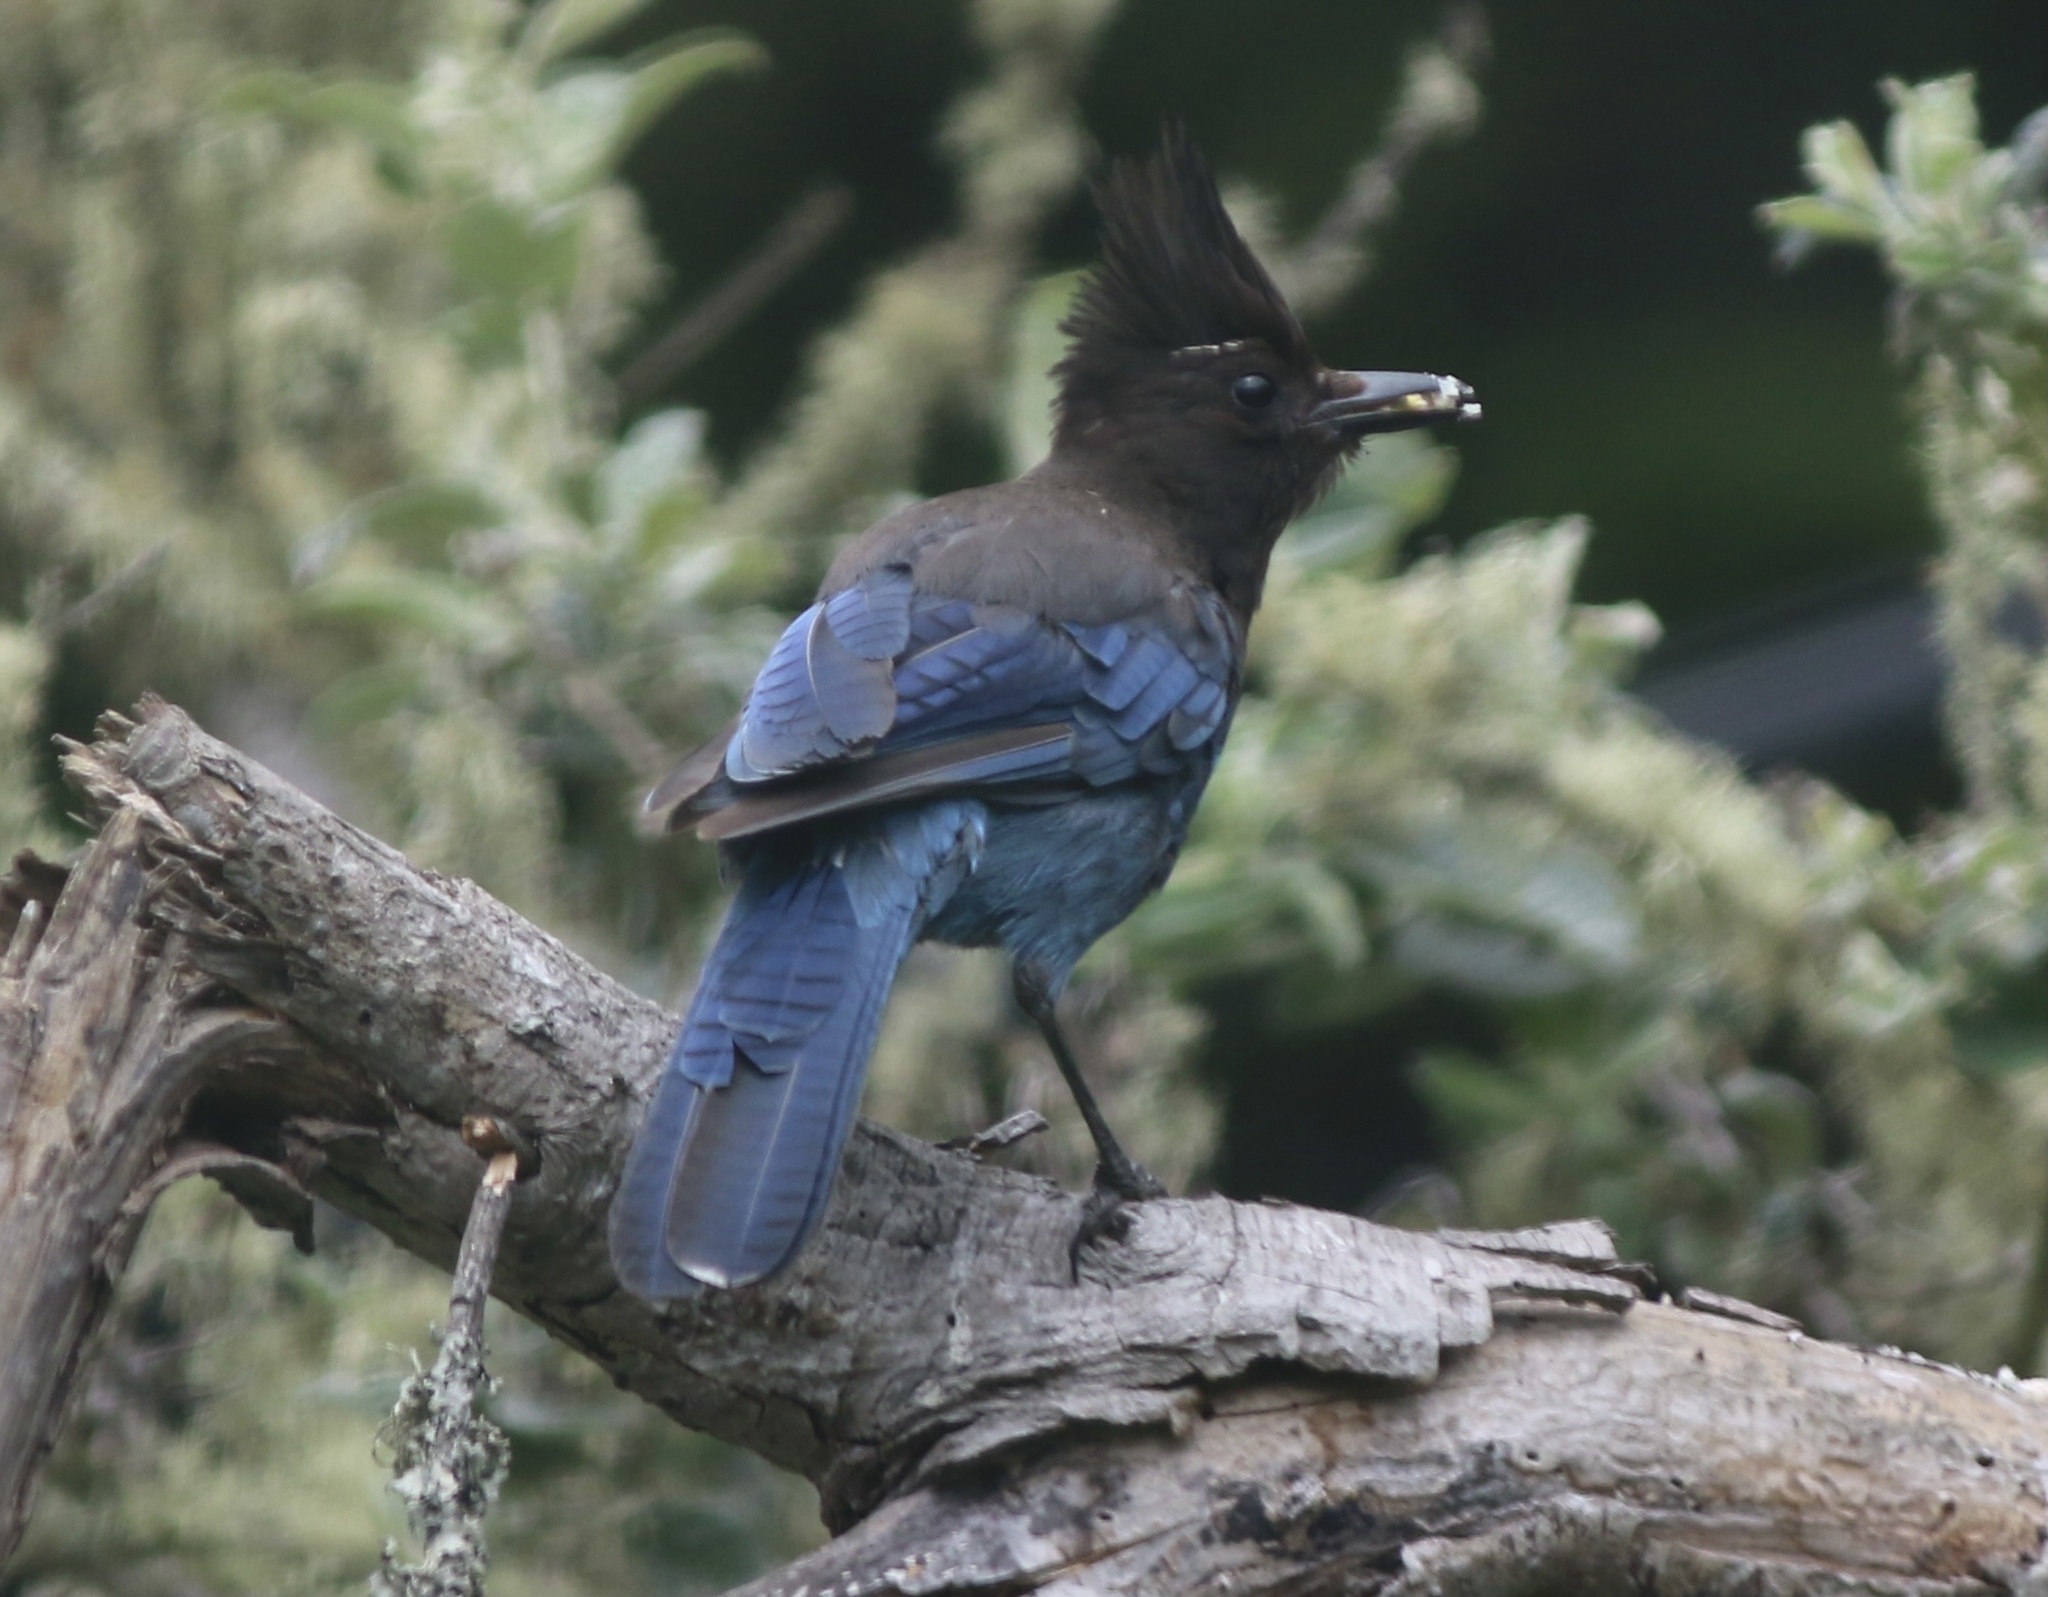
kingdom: Animalia
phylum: Chordata
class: Aves
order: Passeriformes
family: Corvidae
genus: Cyanocitta
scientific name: Cyanocitta stelleri
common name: Steller's jay
